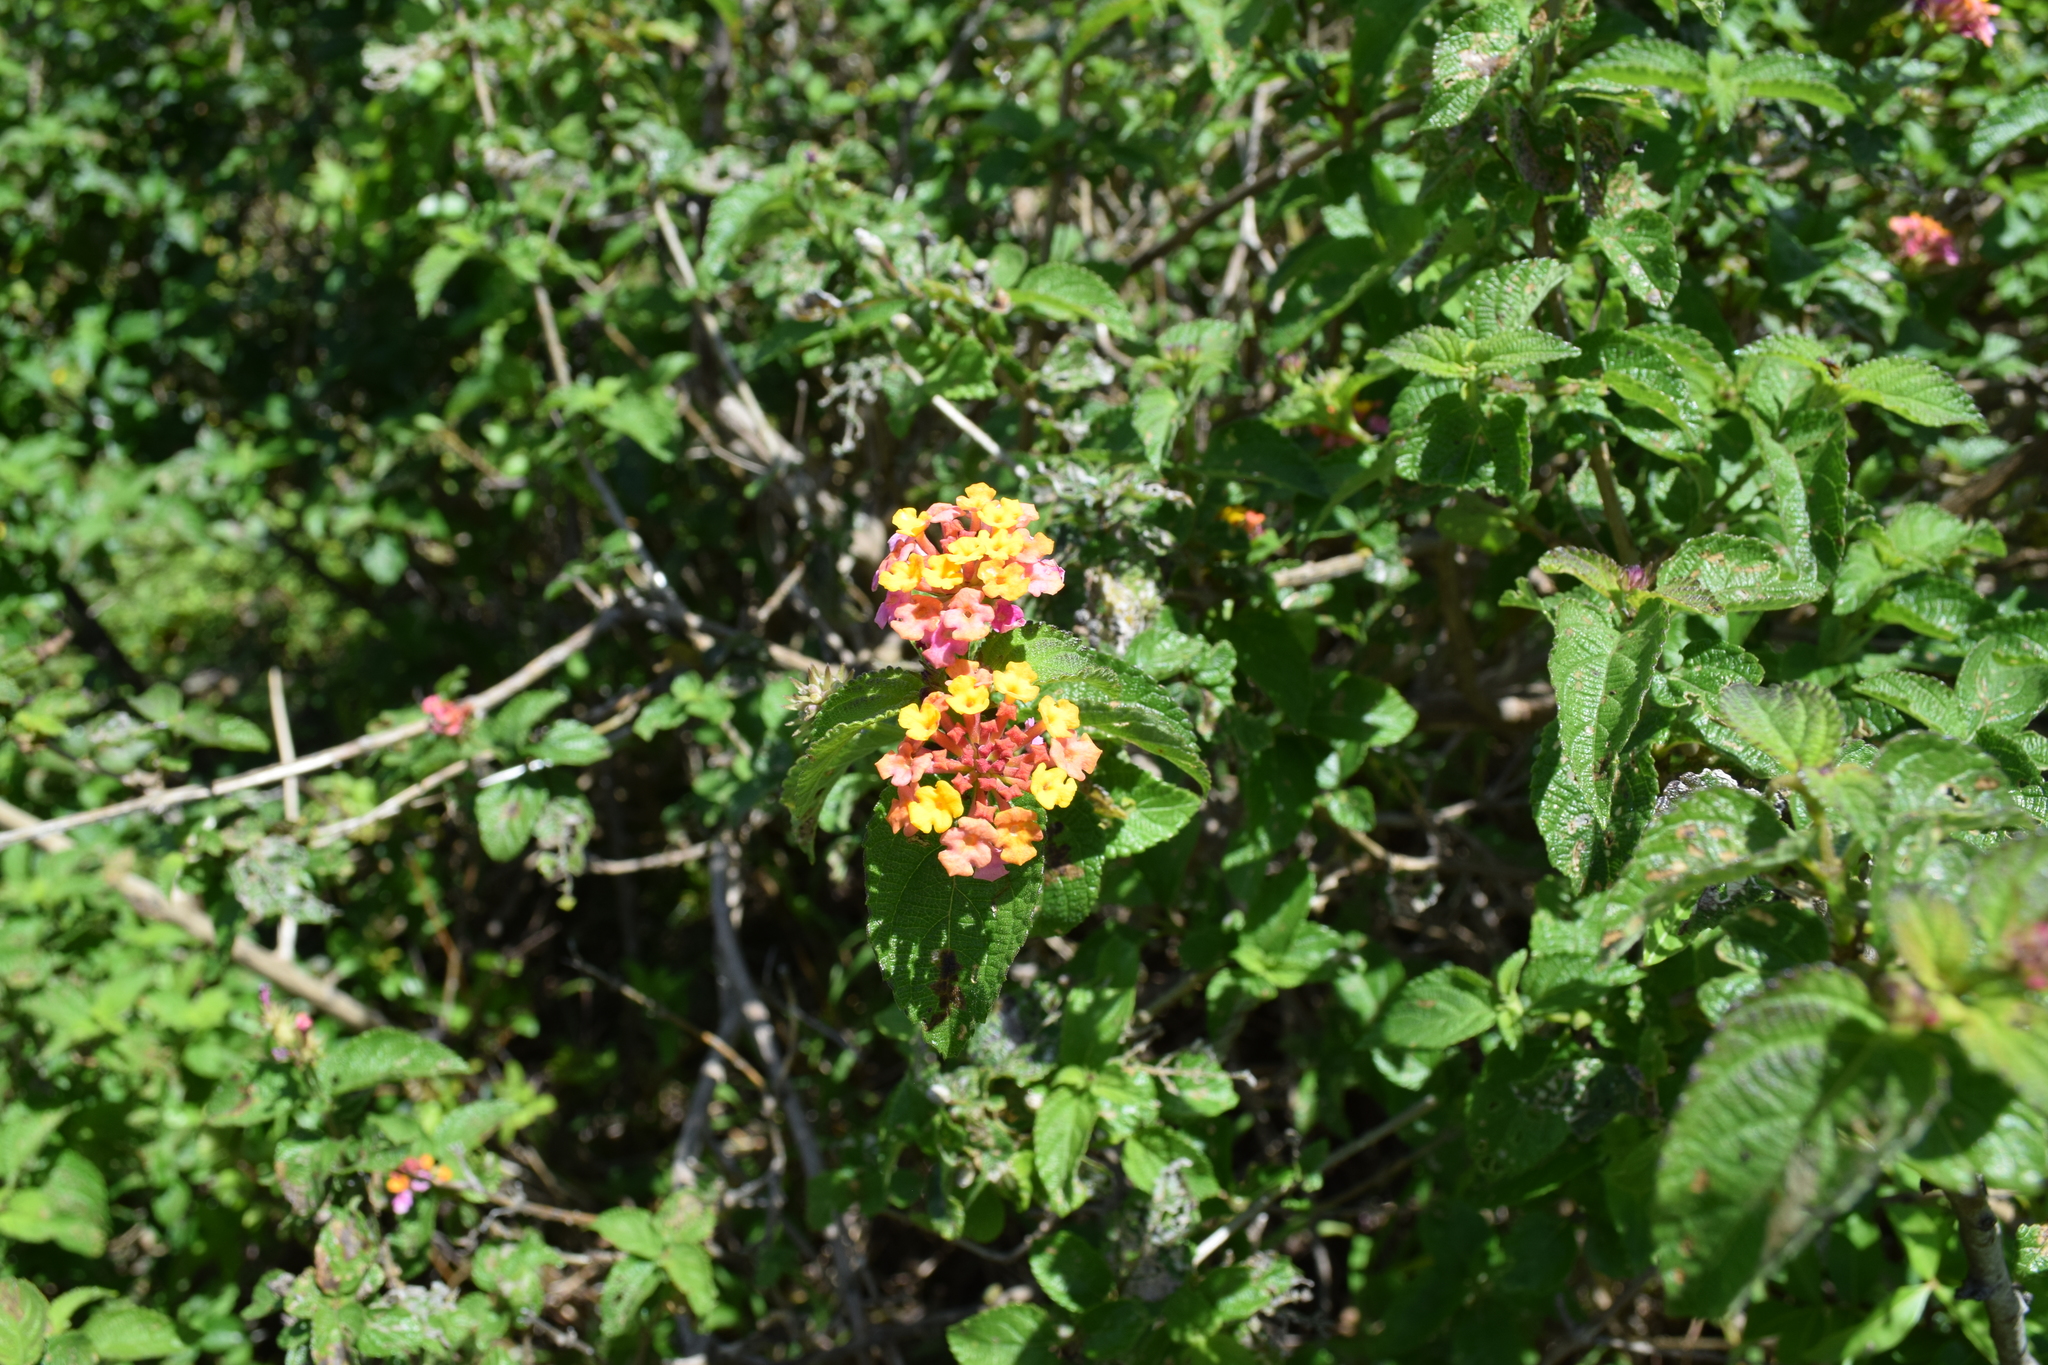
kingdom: Plantae
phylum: Tracheophyta
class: Magnoliopsida
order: Lamiales
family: Verbenaceae
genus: Lantana
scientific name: Lantana camara
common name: Lantana
